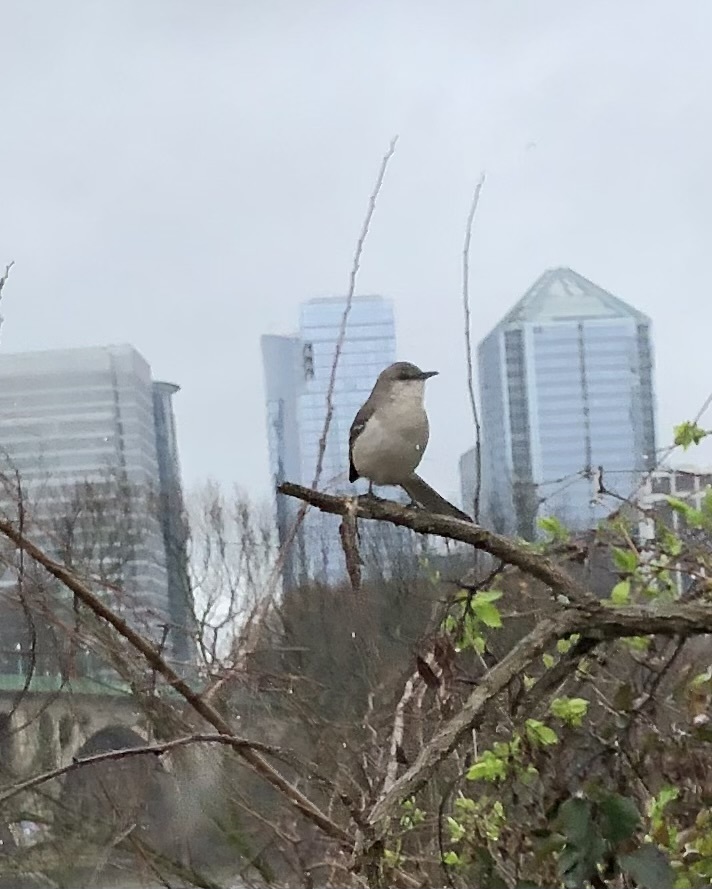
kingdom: Animalia
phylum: Chordata
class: Aves
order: Passeriformes
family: Mimidae
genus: Mimus
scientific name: Mimus polyglottos
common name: Northern mockingbird
